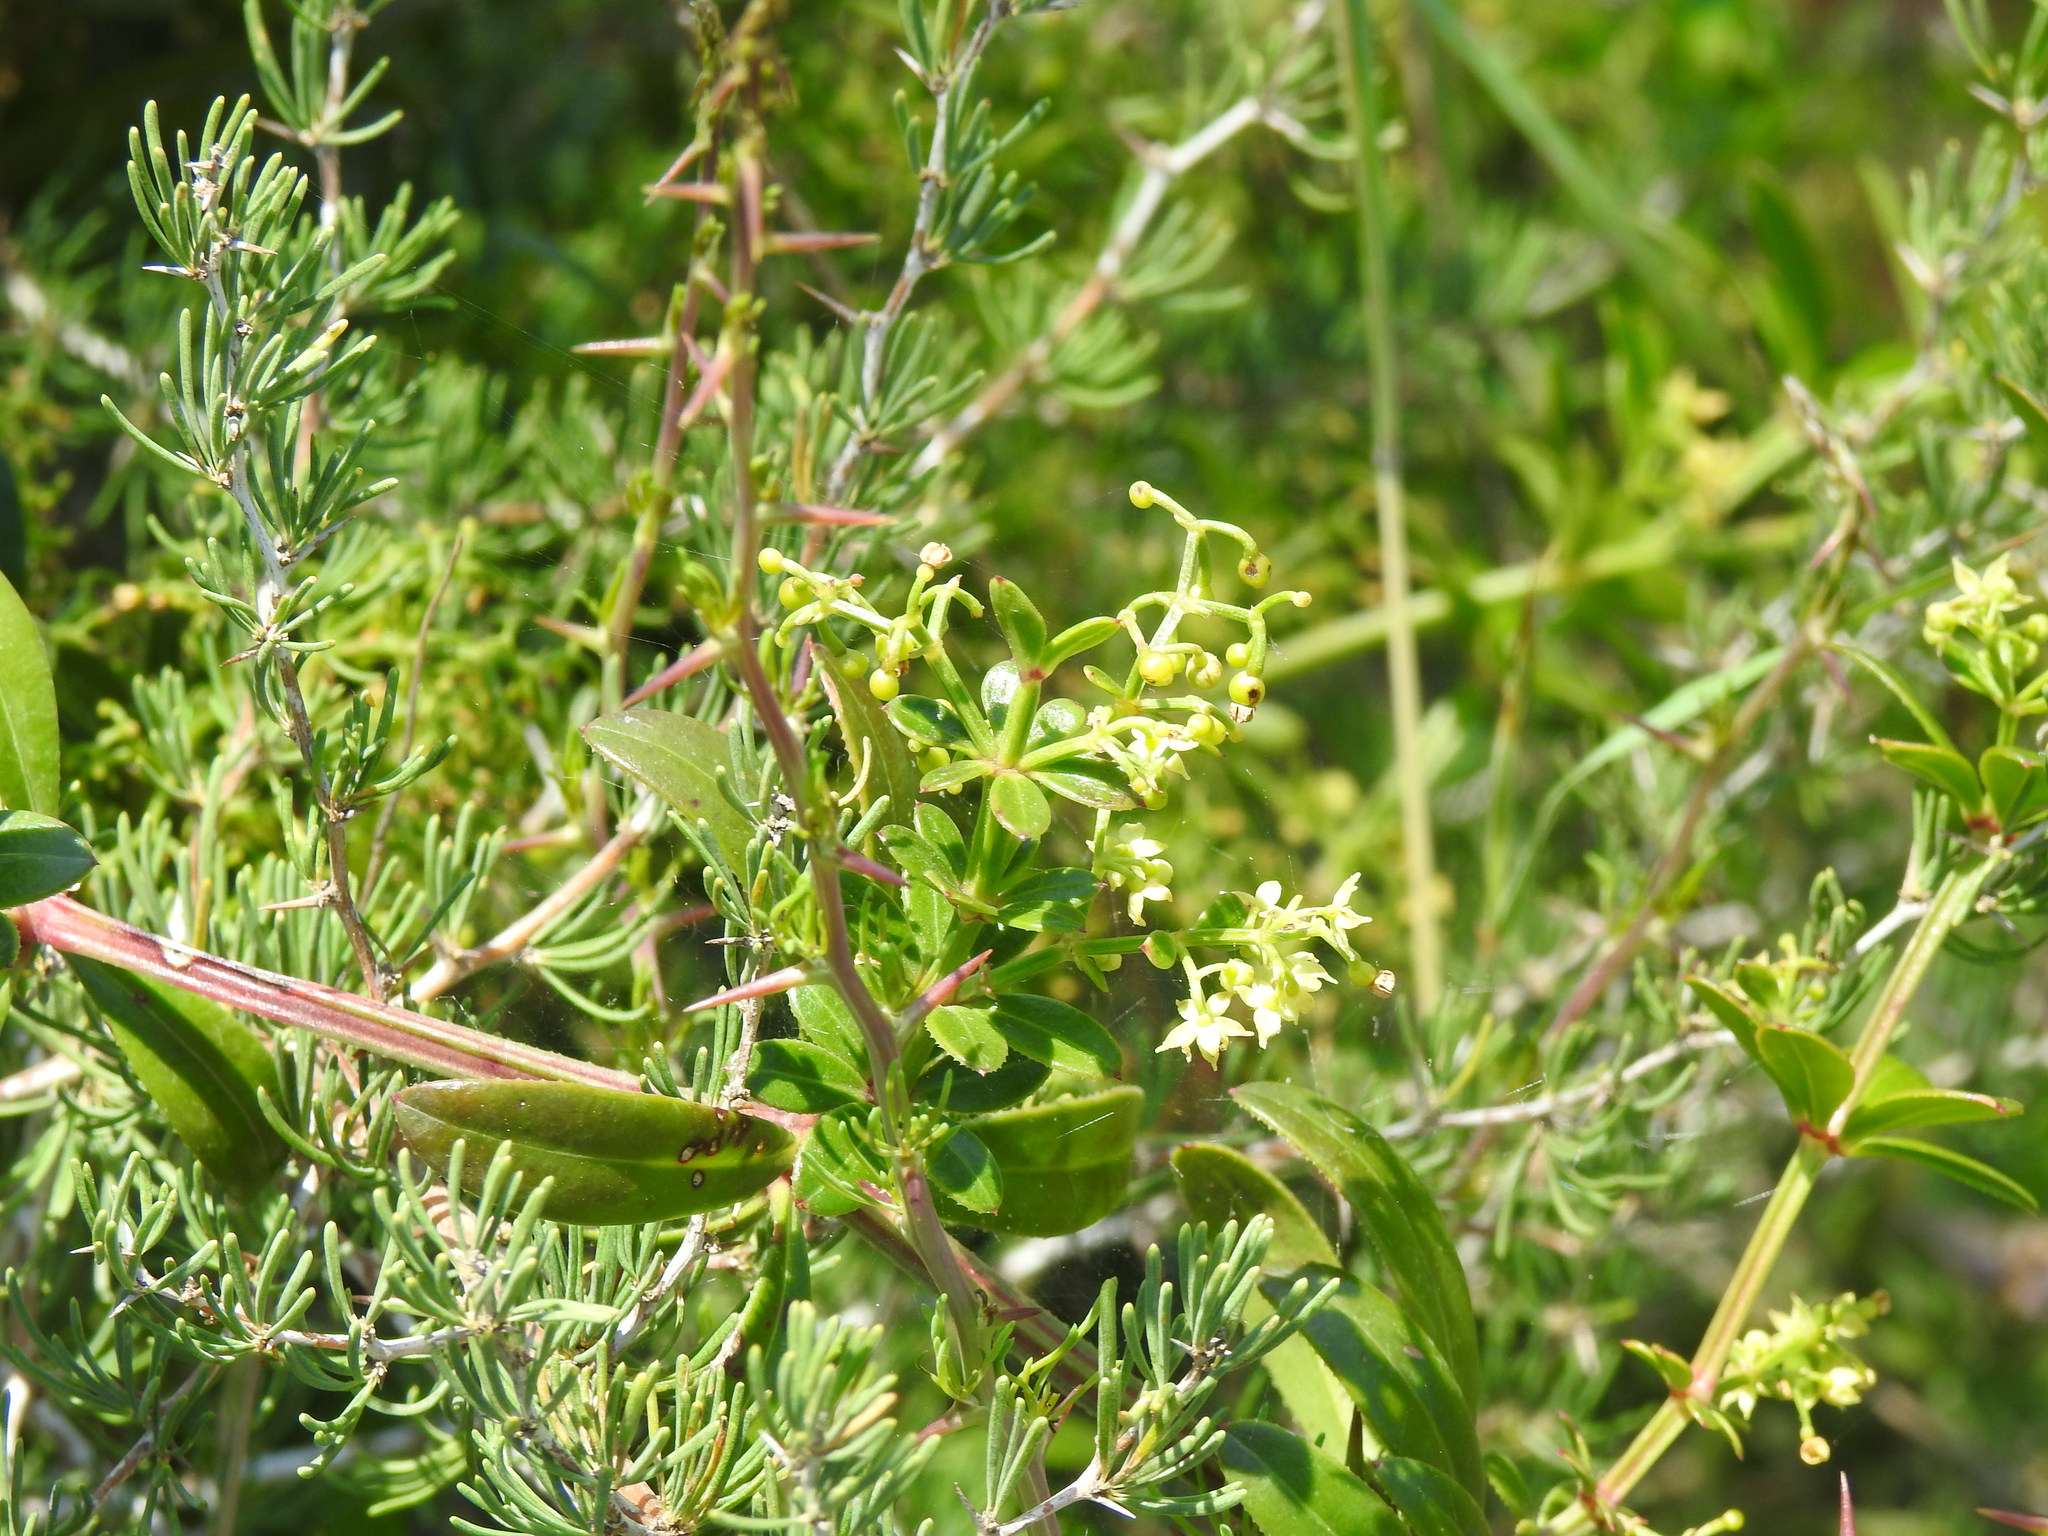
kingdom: Plantae
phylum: Tracheophyta
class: Magnoliopsida
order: Gentianales
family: Rubiaceae
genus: Rubia
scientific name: Rubia peregrina
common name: Wild madder
